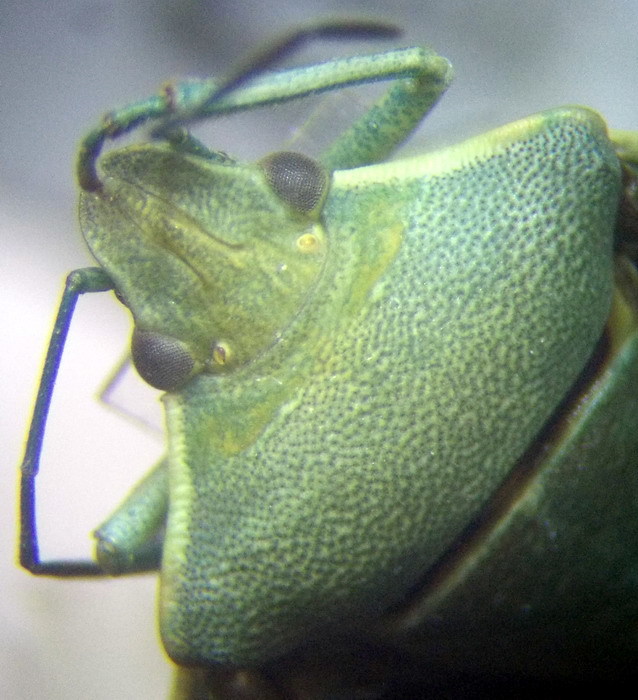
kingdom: Animalia
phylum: Arthropoda
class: Insecta
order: Hemiptera
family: Pentatomidae
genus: Brachynema
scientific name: Brachynema germarii
